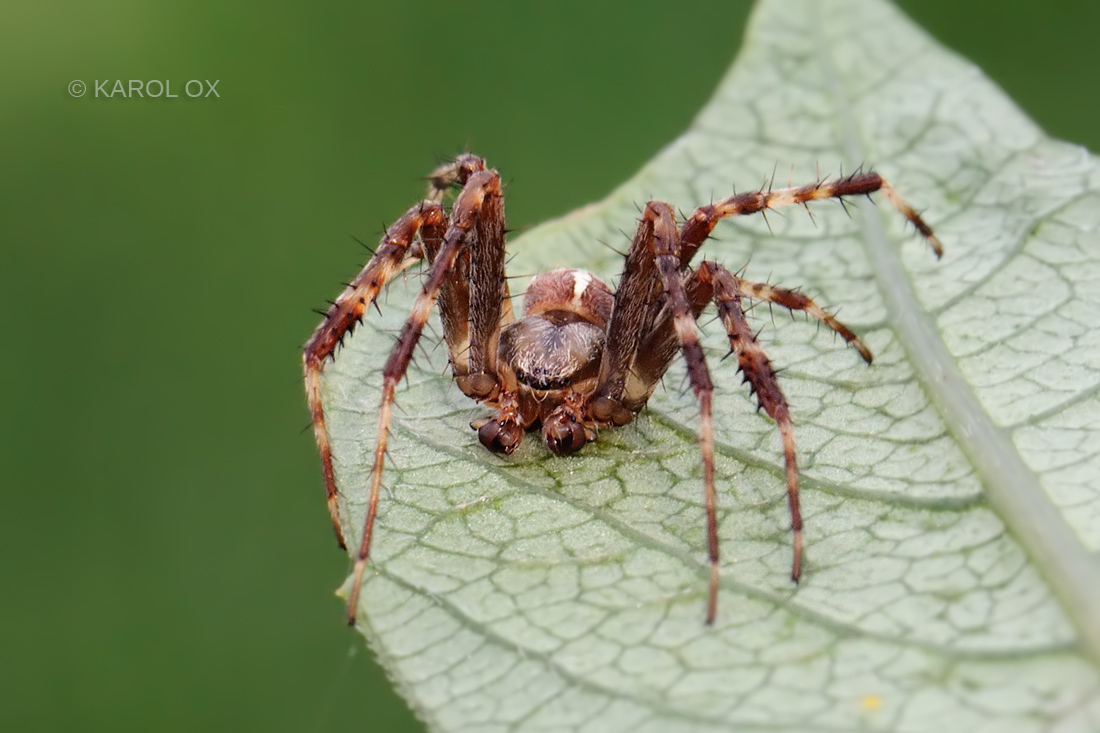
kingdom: Animalia
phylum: Arthropoda
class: Arachnida
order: Araneae
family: Araneidae
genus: Araneus
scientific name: Araneus diadematus
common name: Cross orbweaver
